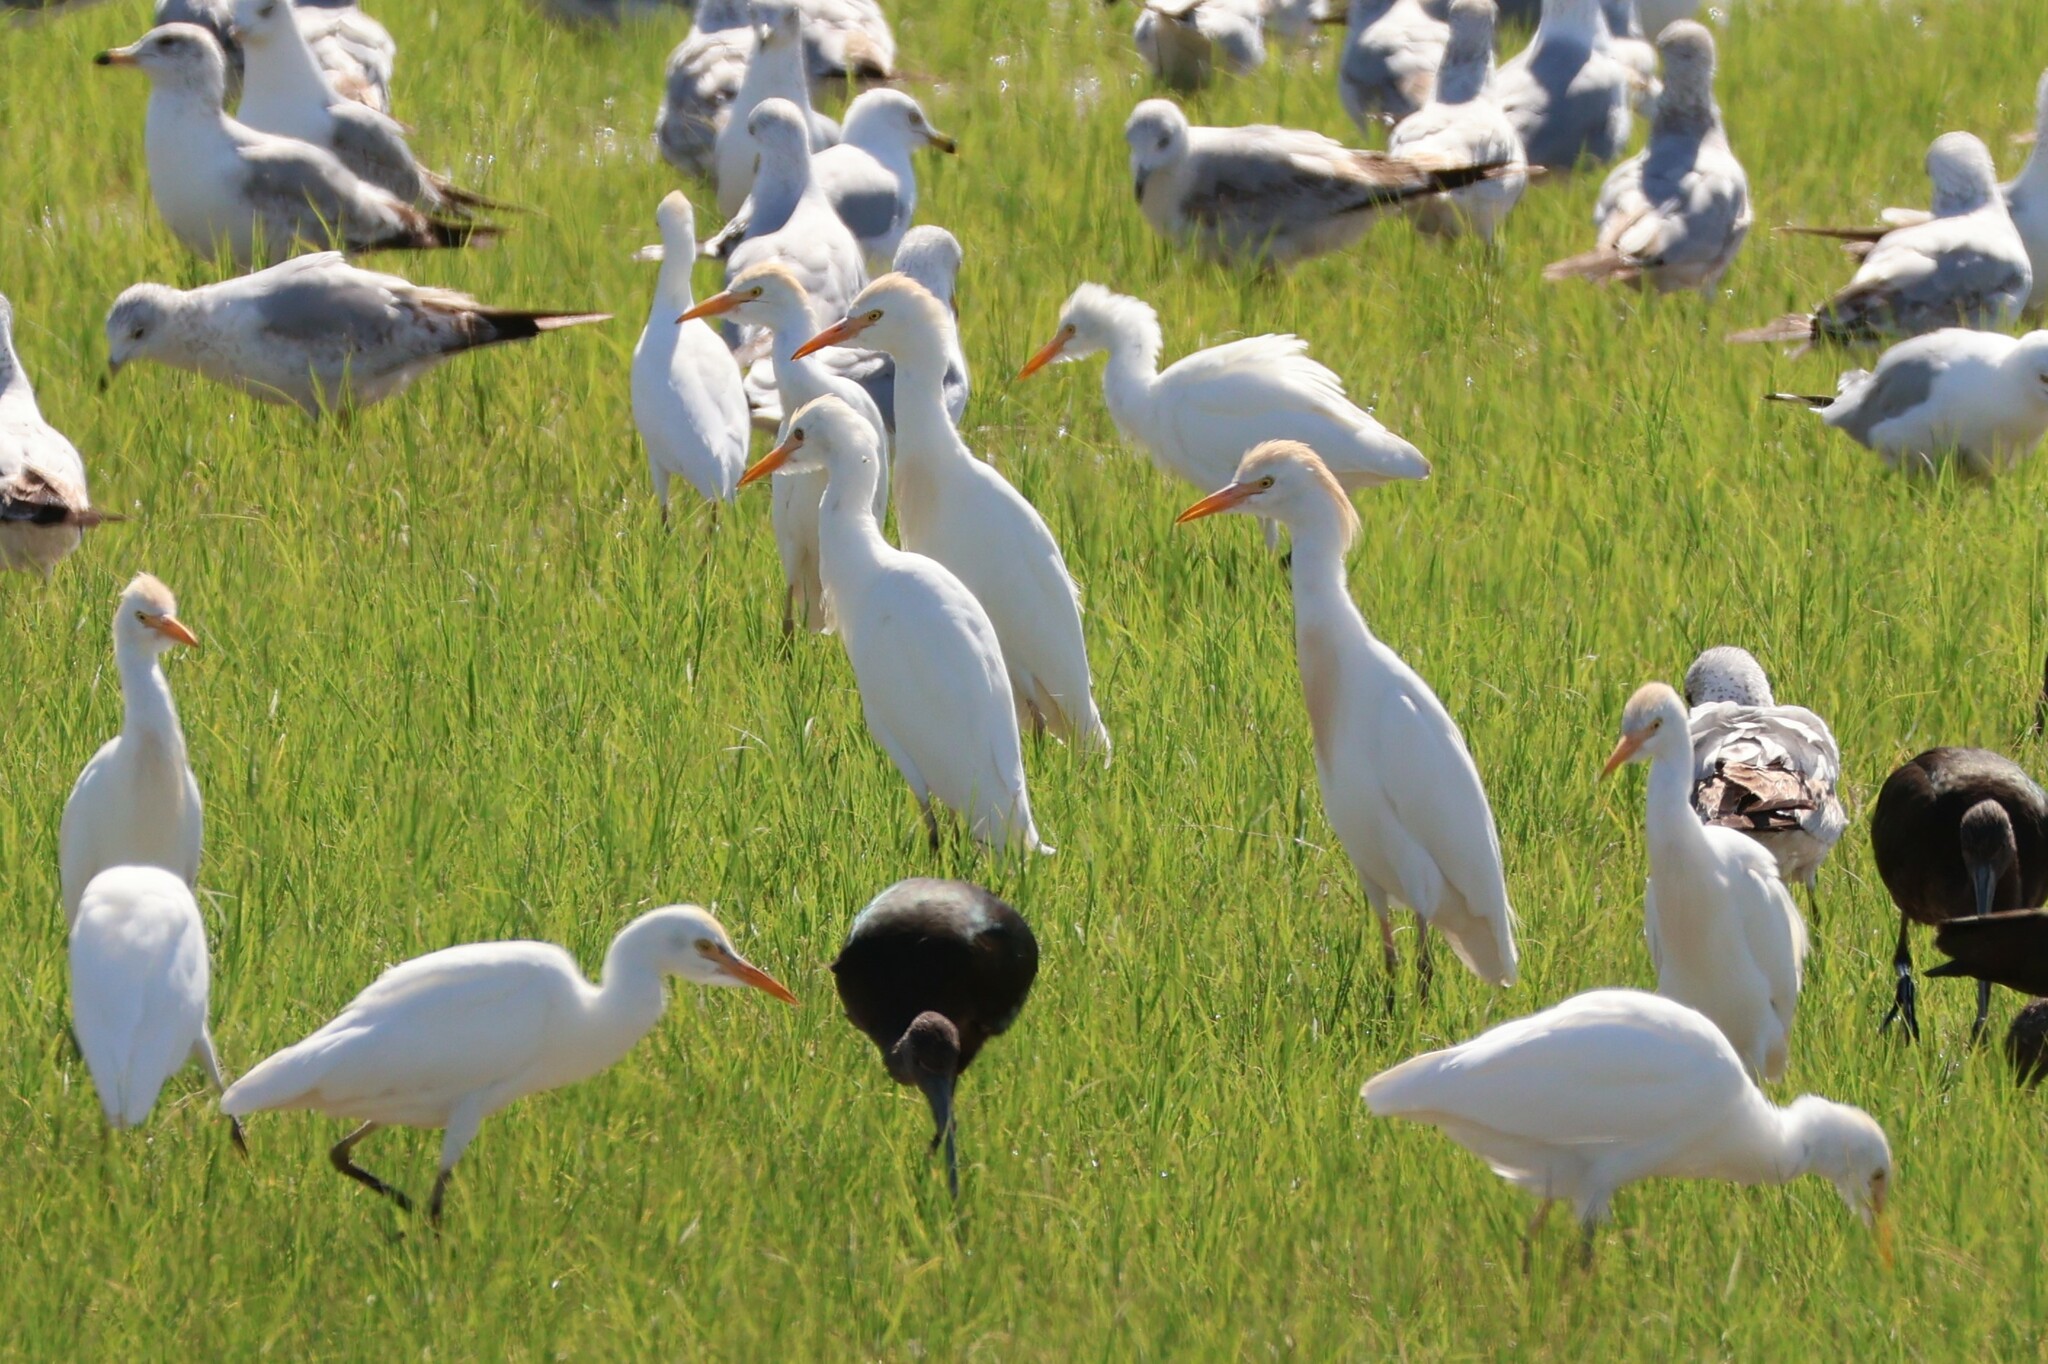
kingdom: Animalia
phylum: Chordata
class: Aves
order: Pelecaniformes
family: Ardeidae
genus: Bubulcus
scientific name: Bubulcus ibis
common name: Cattle egret
